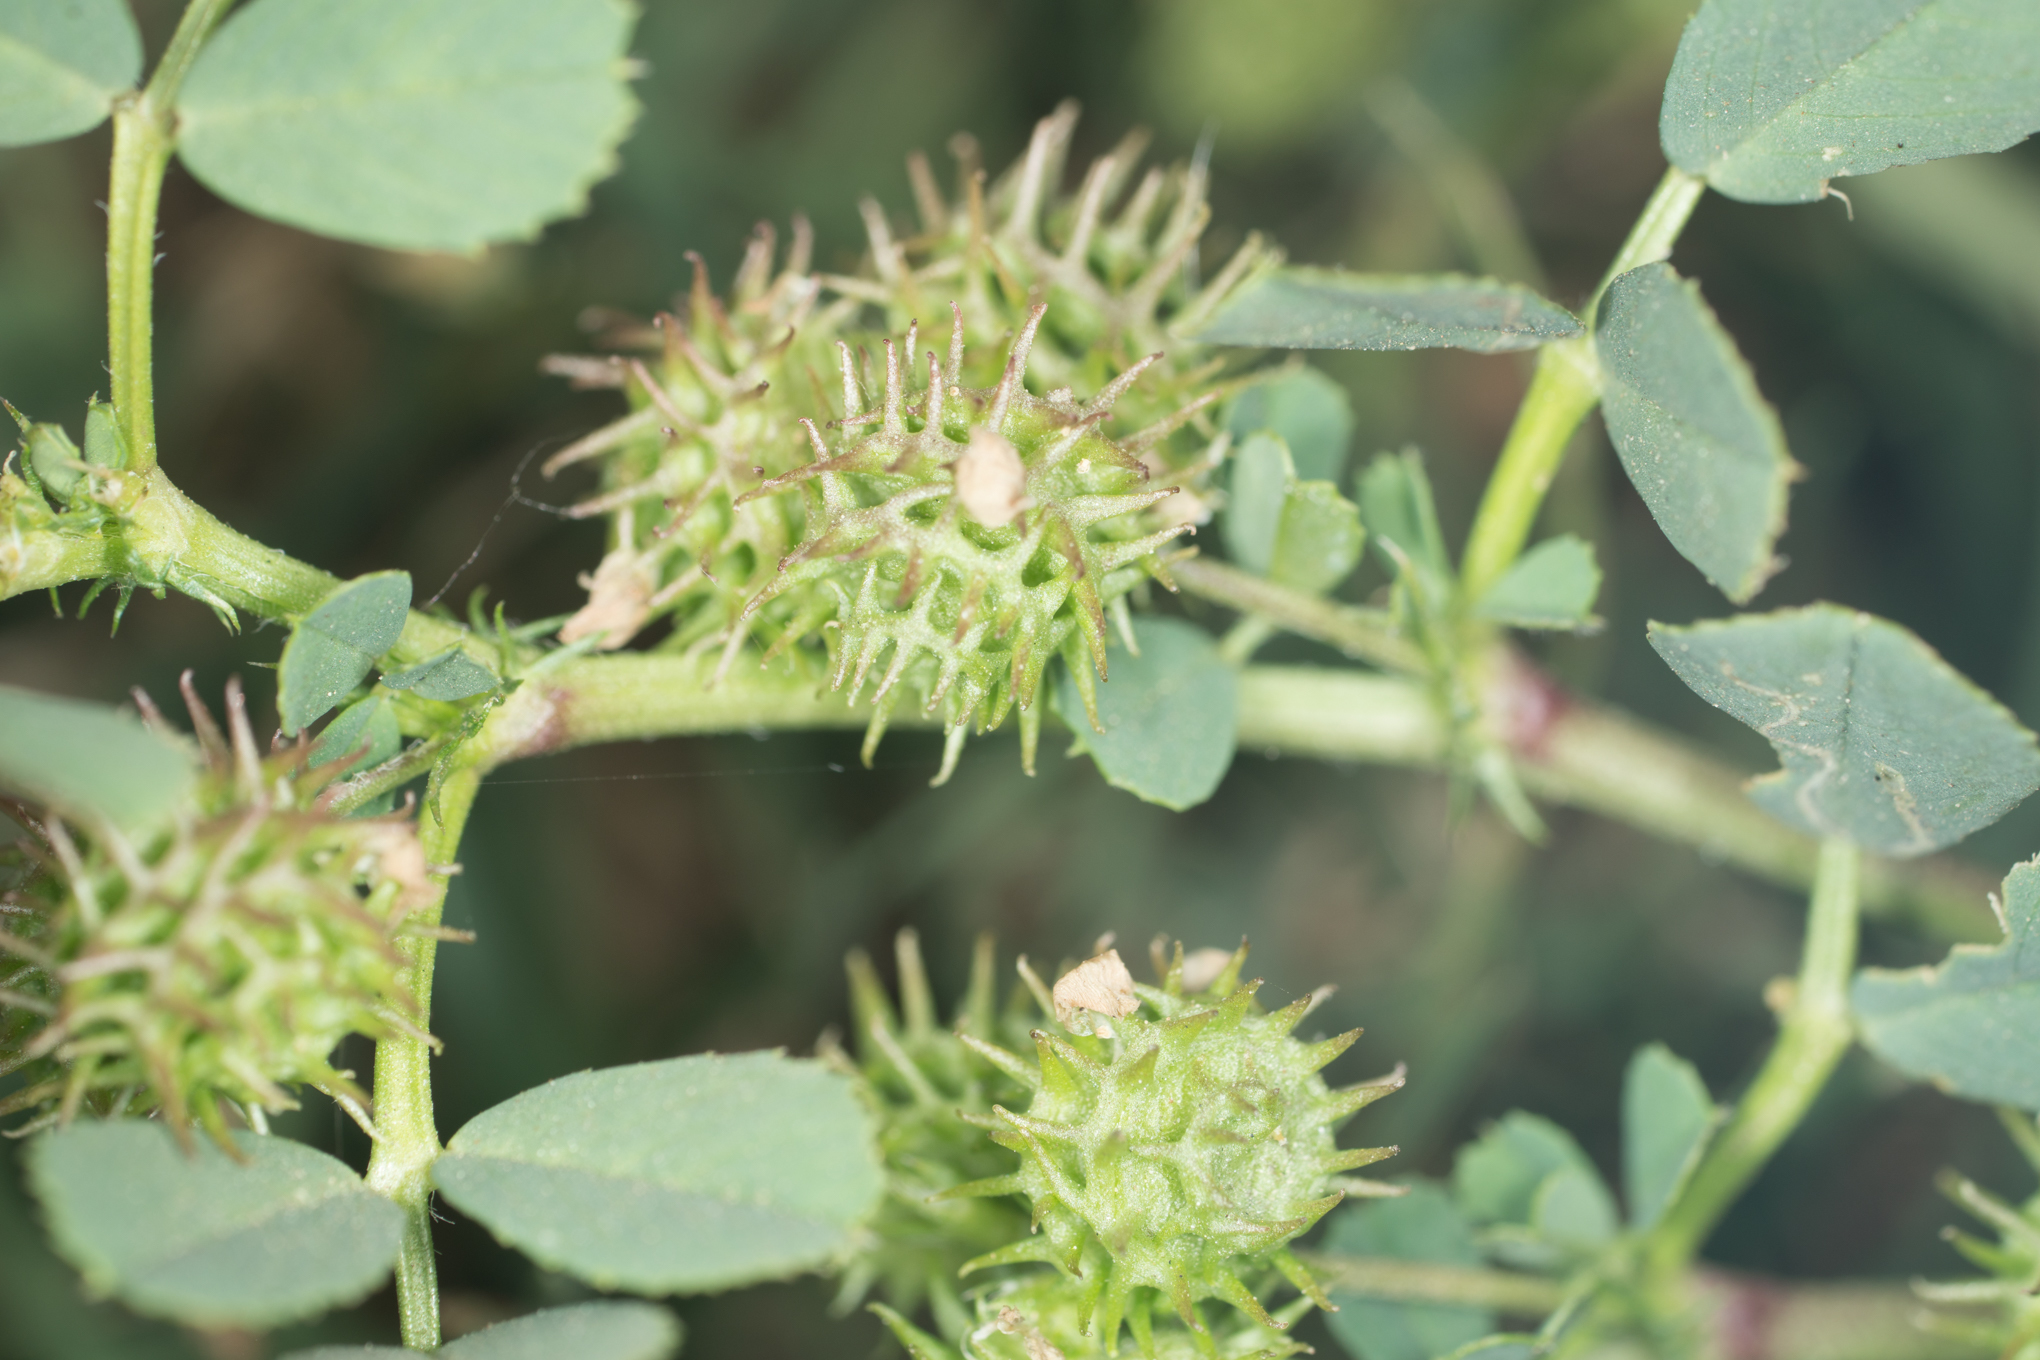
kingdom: Plantae
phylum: Tracheophyta
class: Magnoliopsida
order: Fabales
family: Fabaceae
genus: Medicago
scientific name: Medicago polymorpha
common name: Burclover
